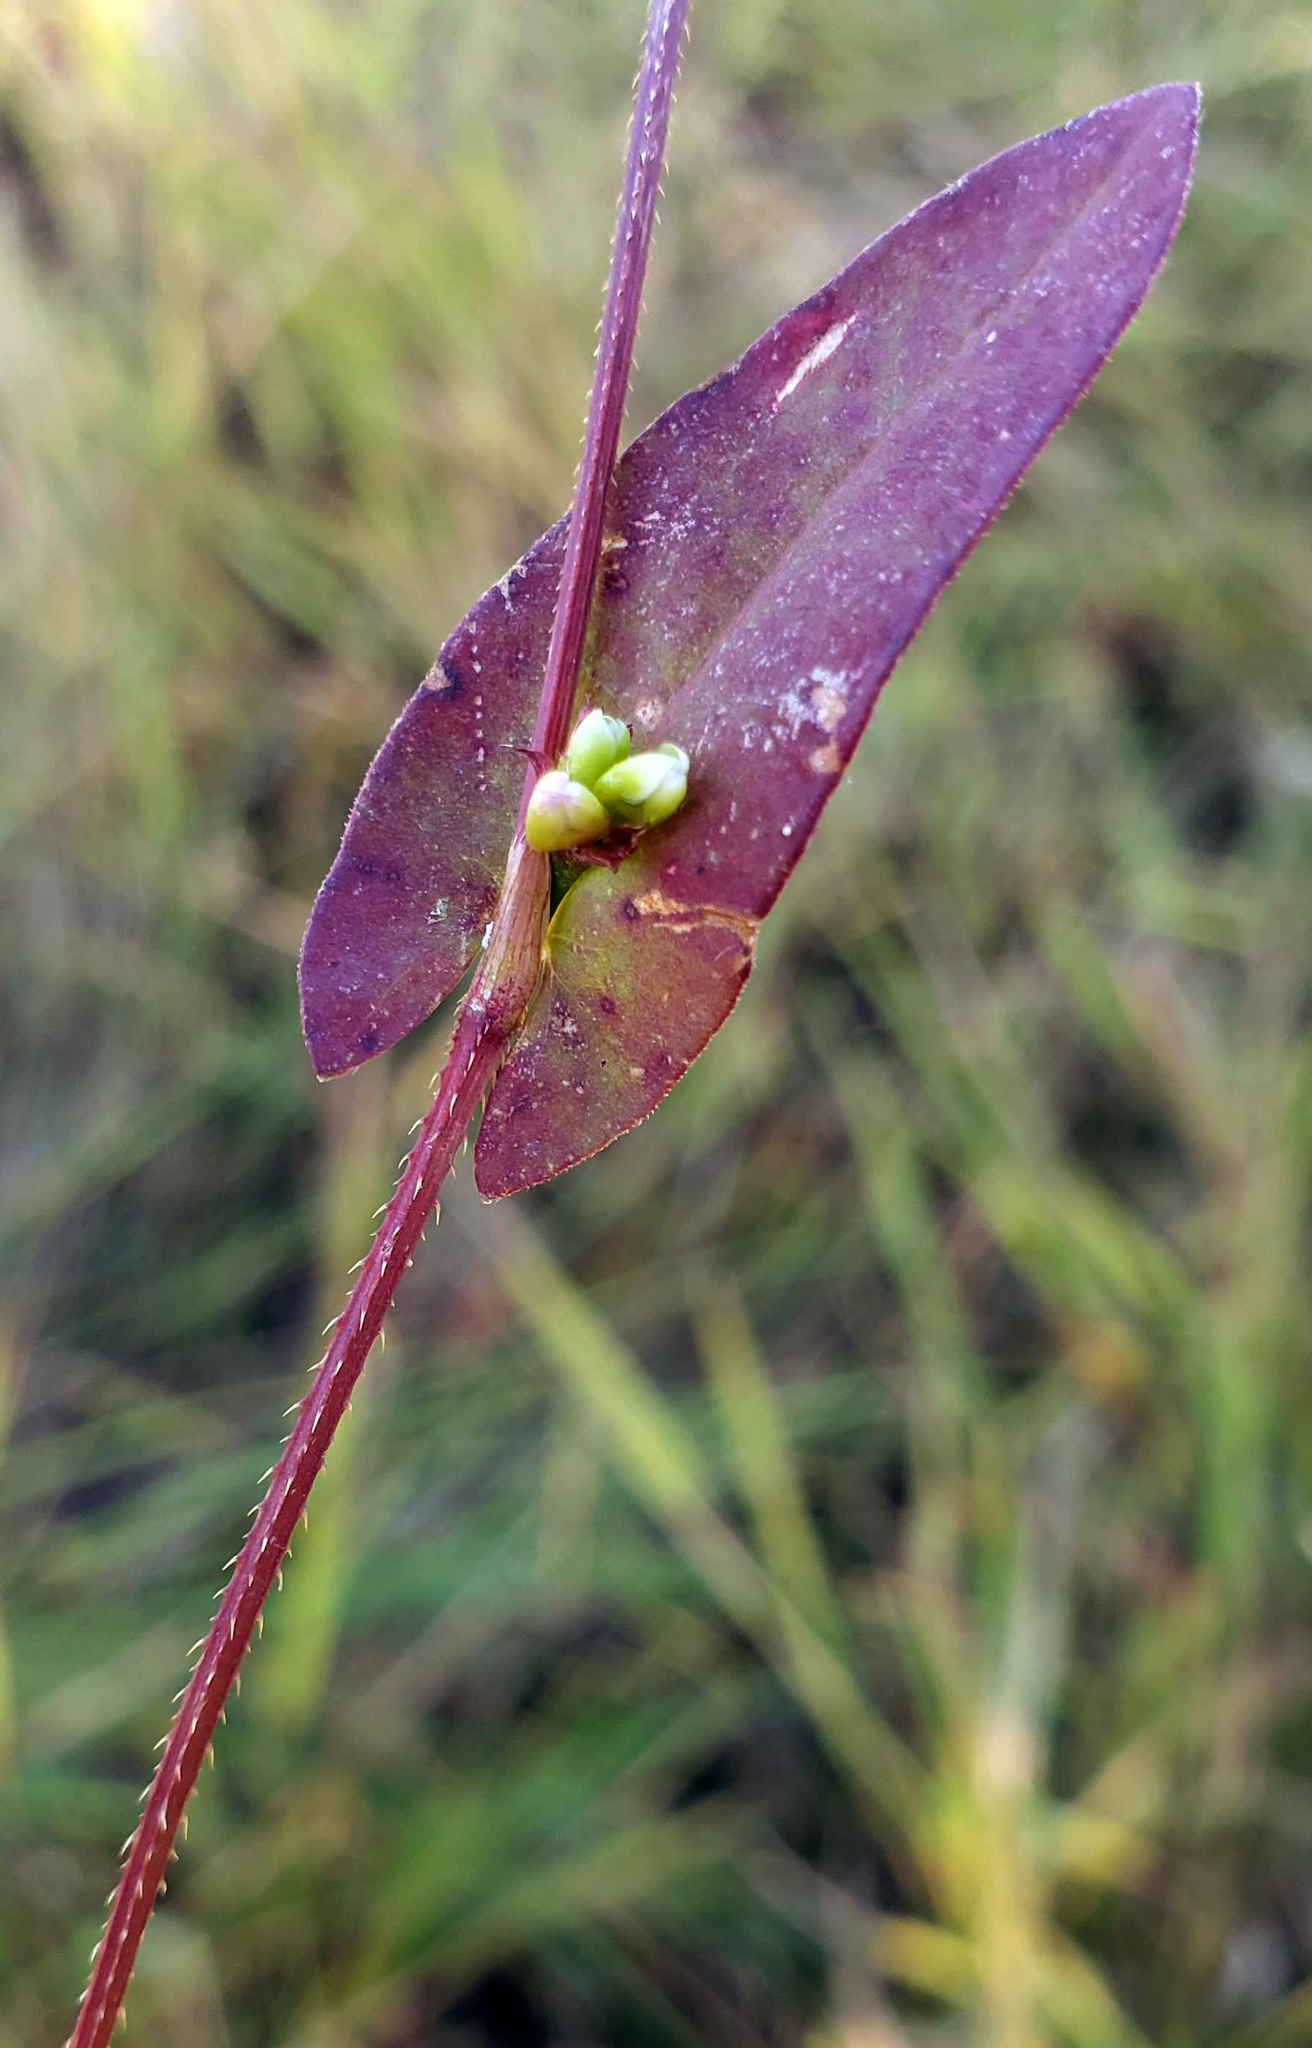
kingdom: Plantae
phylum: Tracheophyta
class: Magnoliopsida
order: Caryophyllales
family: Polygonaceae
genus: Persicaria
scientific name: Persicaria sagittata
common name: American tearthumb
